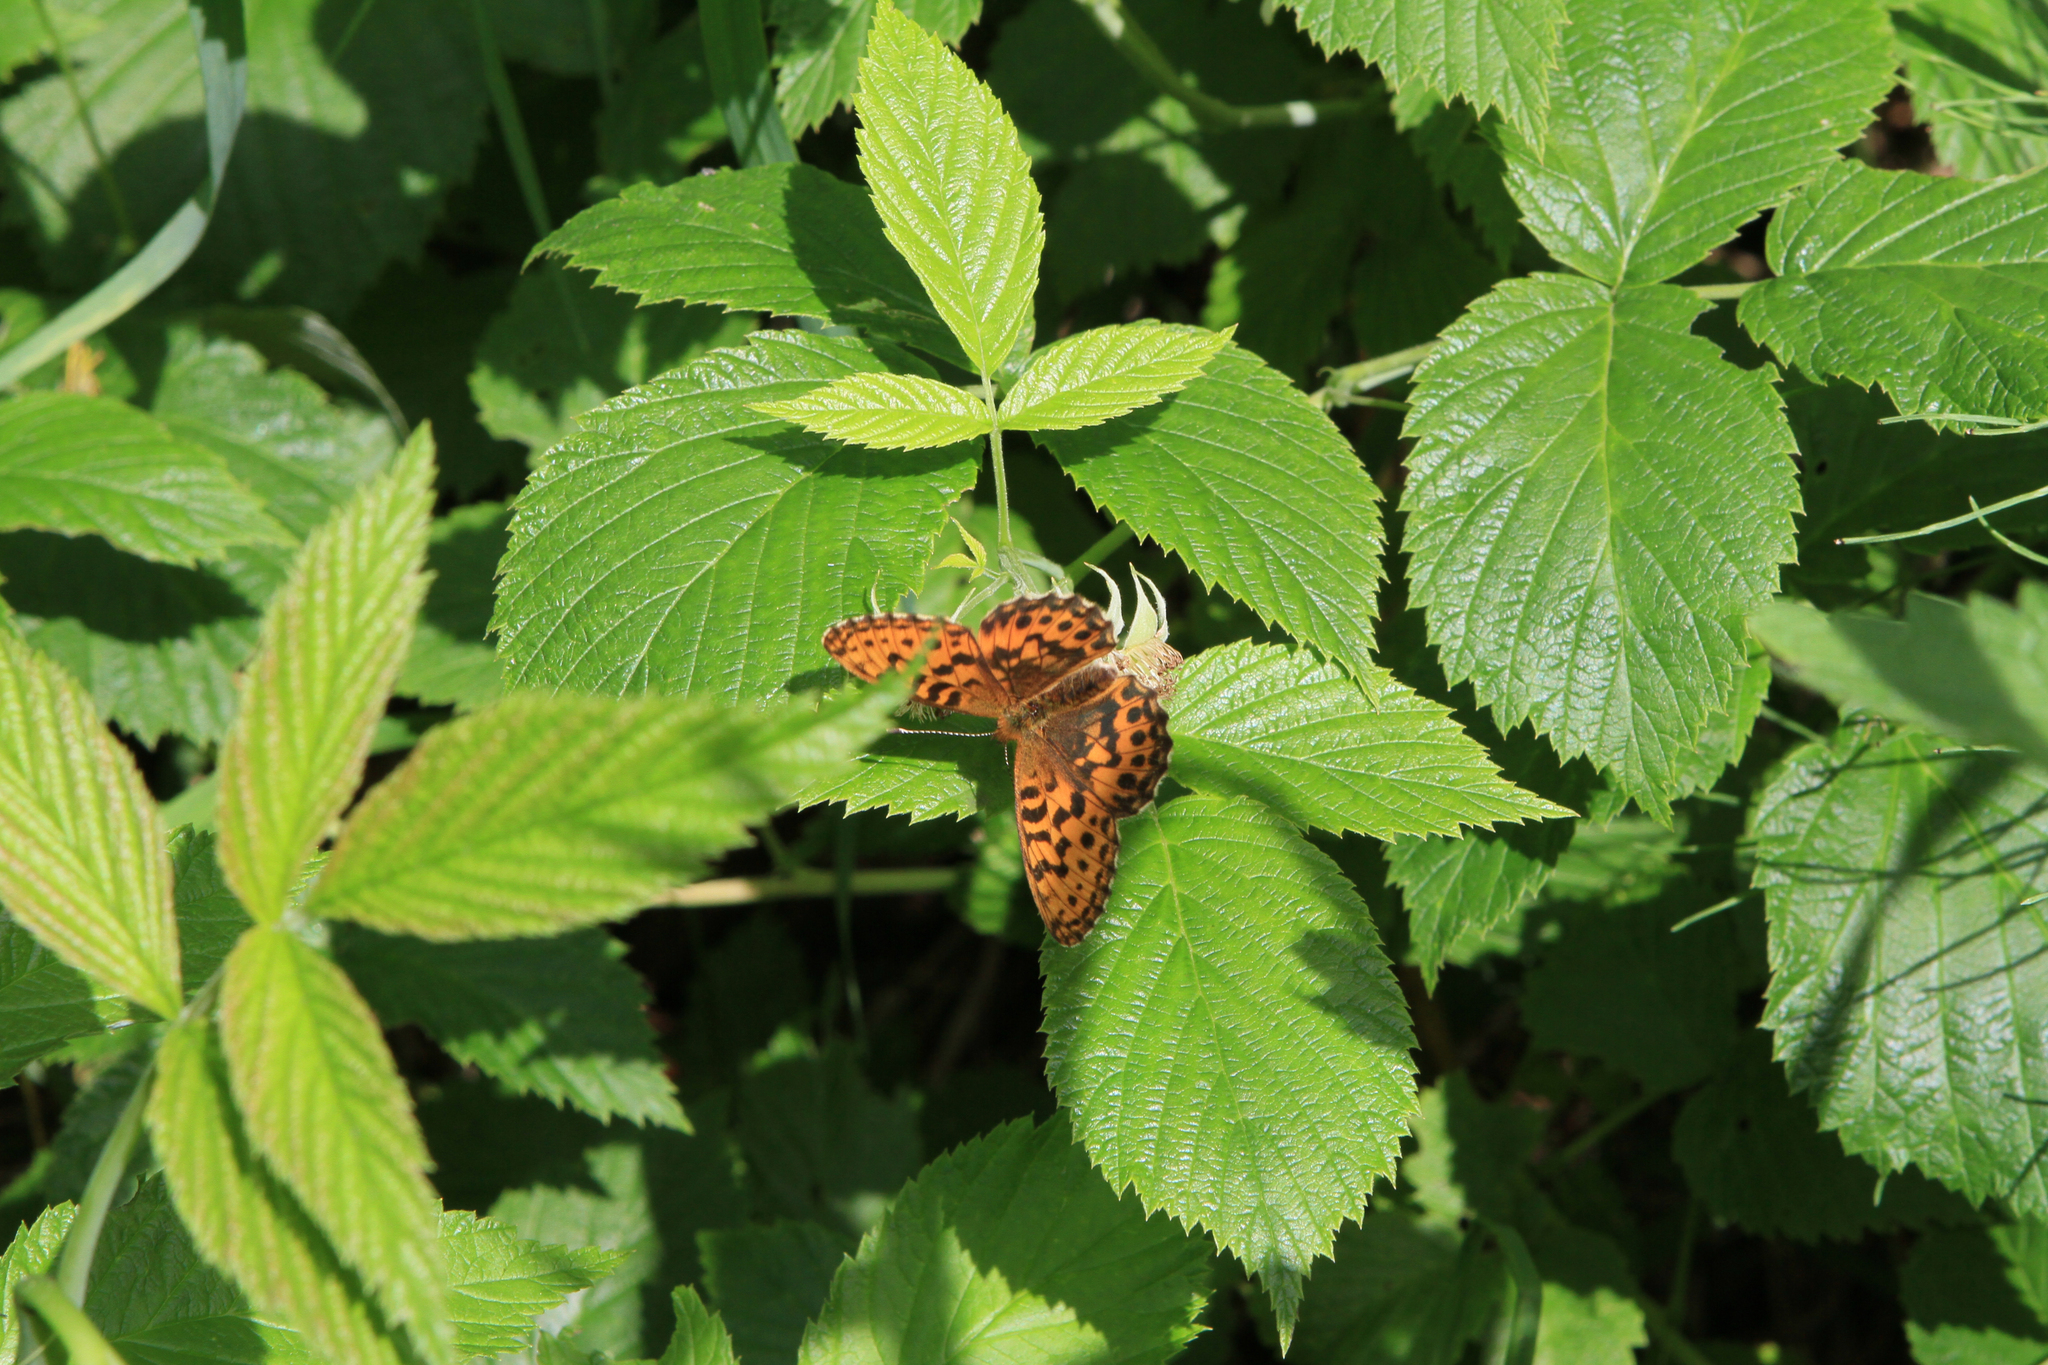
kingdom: Animalia
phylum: Arthropoda
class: Insecta
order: Lepidoptera
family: Nymphalidae
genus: Boloria
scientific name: Boloria thore
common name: Thor's fritillary
